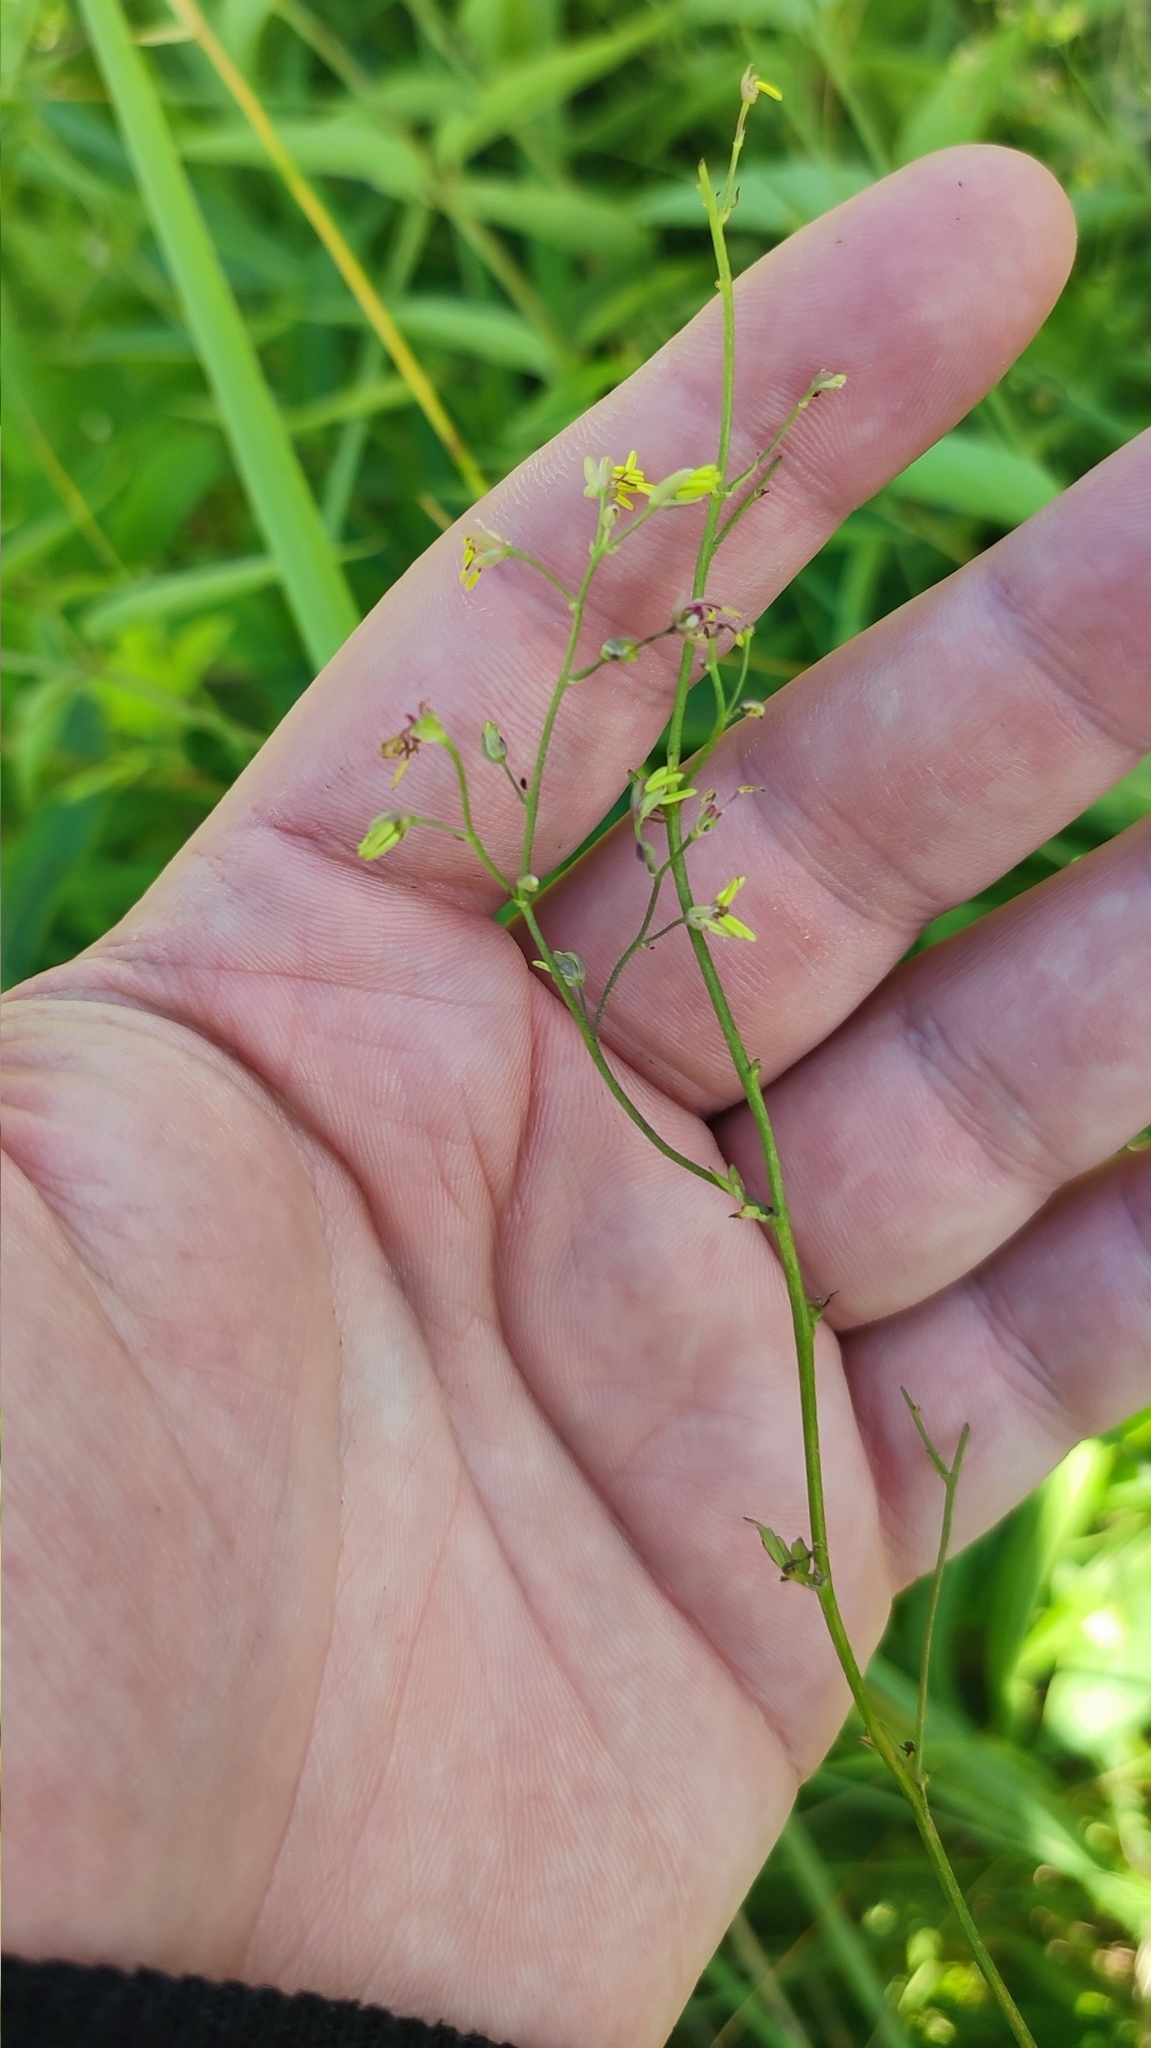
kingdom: Plantae
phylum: Tracheophyta
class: Magnoliopsida
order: Ranunculales
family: Ranunculaceae
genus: Thalictrum
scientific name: Thalictrum minus
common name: Lesser meadow-rue
